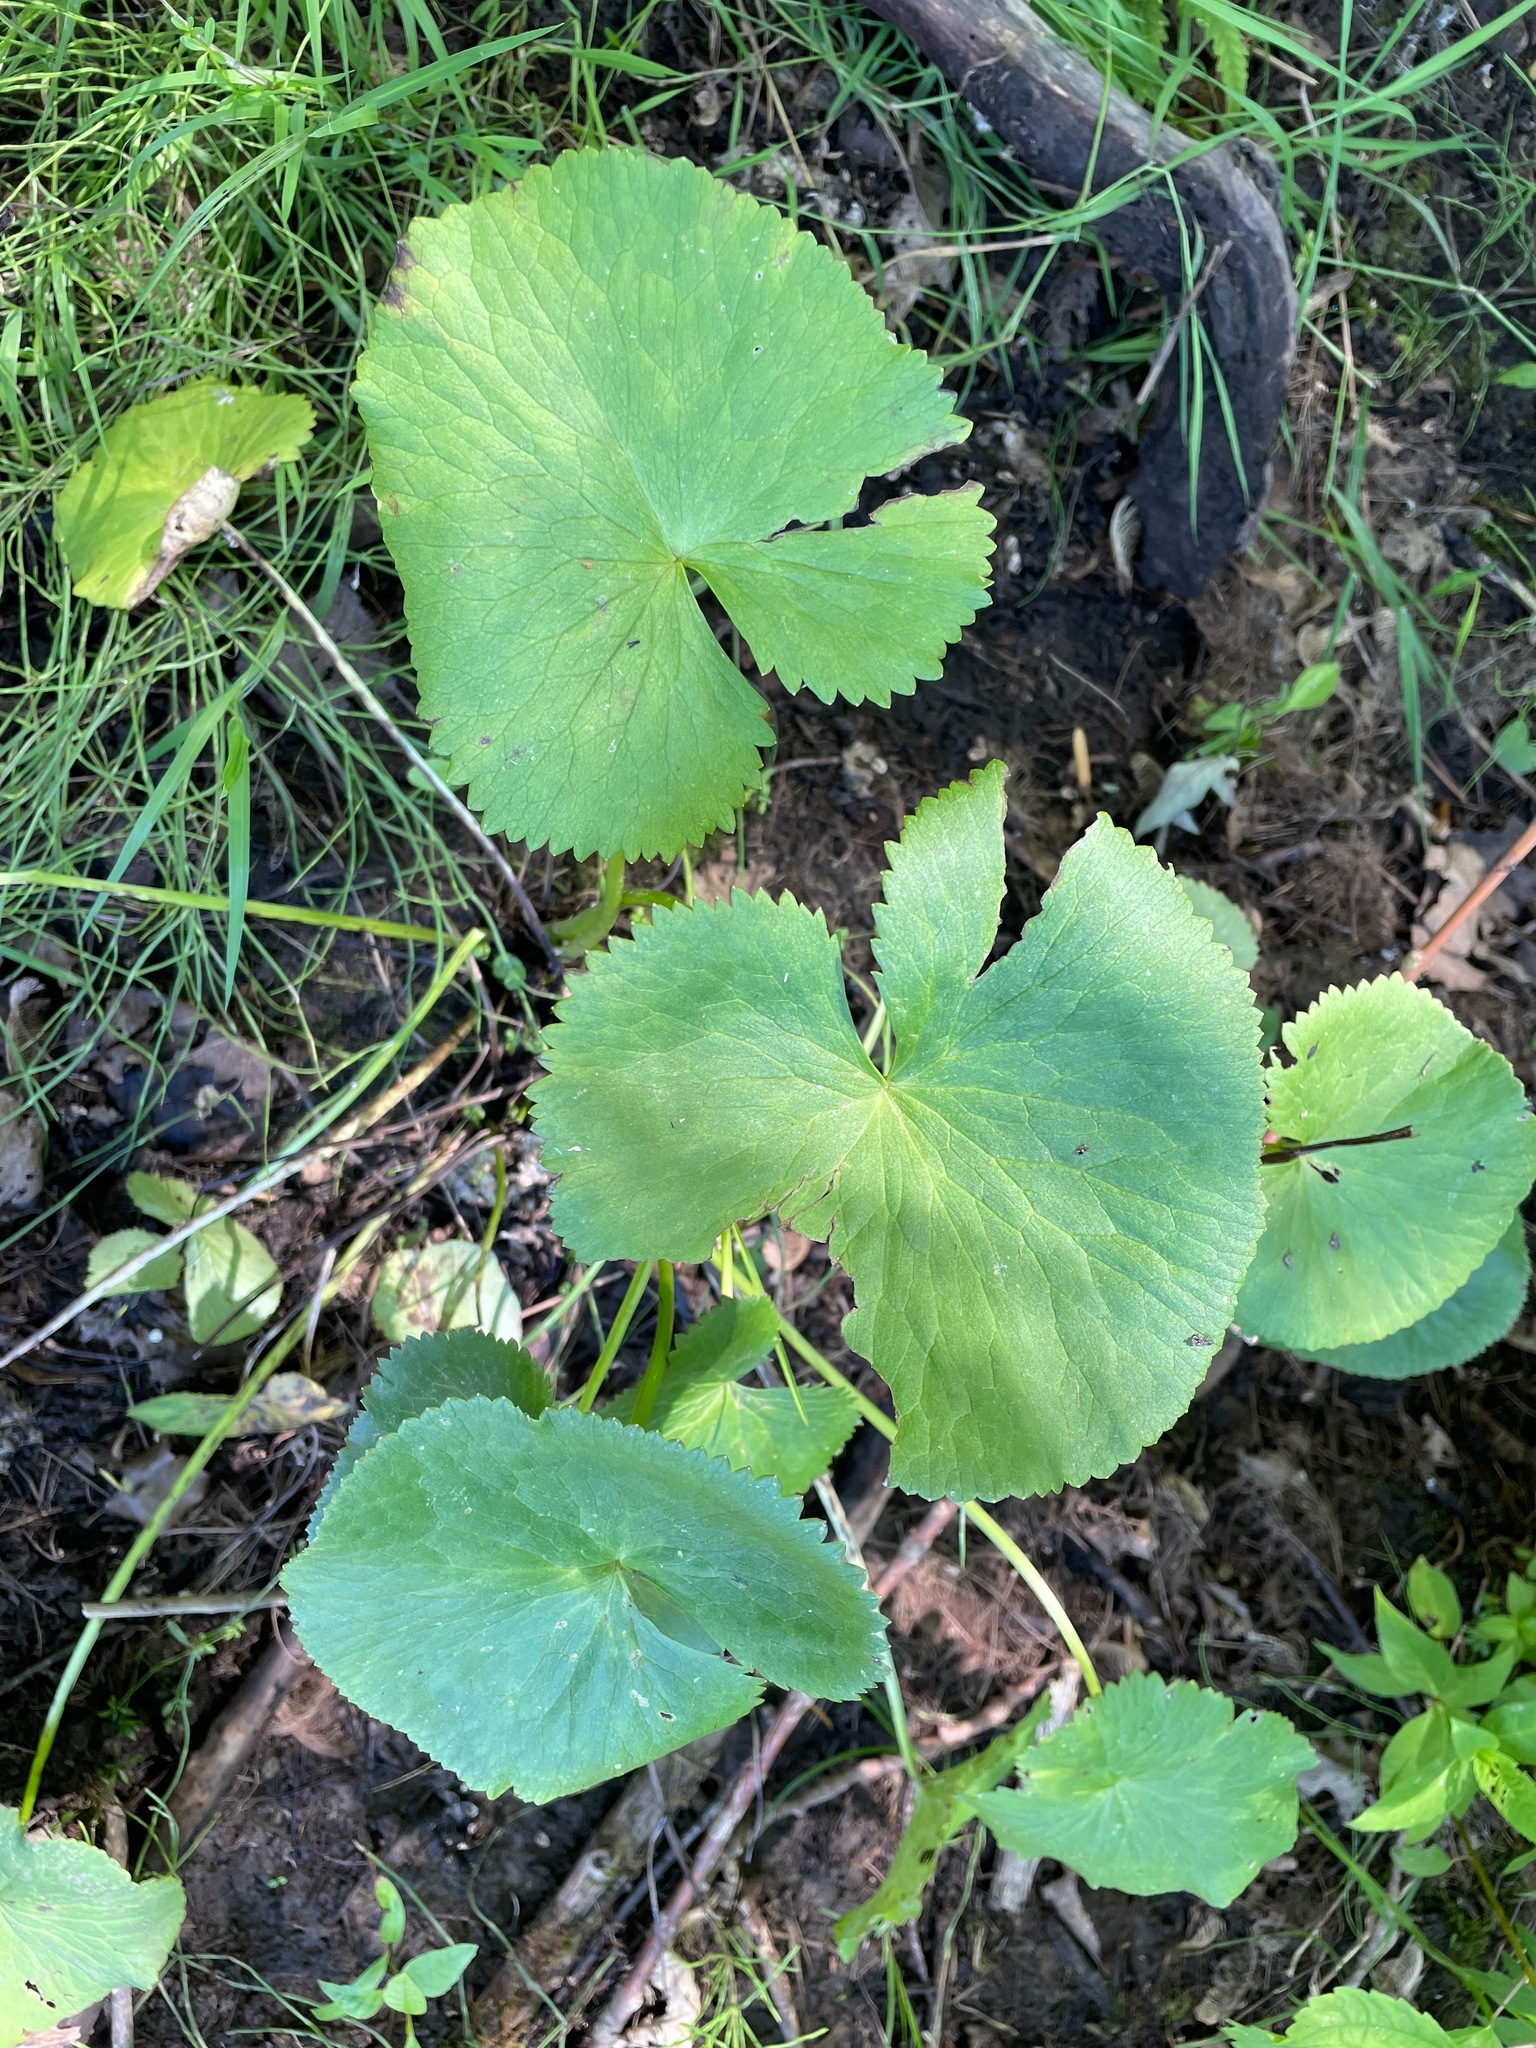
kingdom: Plantae
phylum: Tracheophyta
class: Magnoliopsida
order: Ranunculales
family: Ranunculaceae
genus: Caltha
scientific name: Caltha palustris
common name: Marsh marigold
